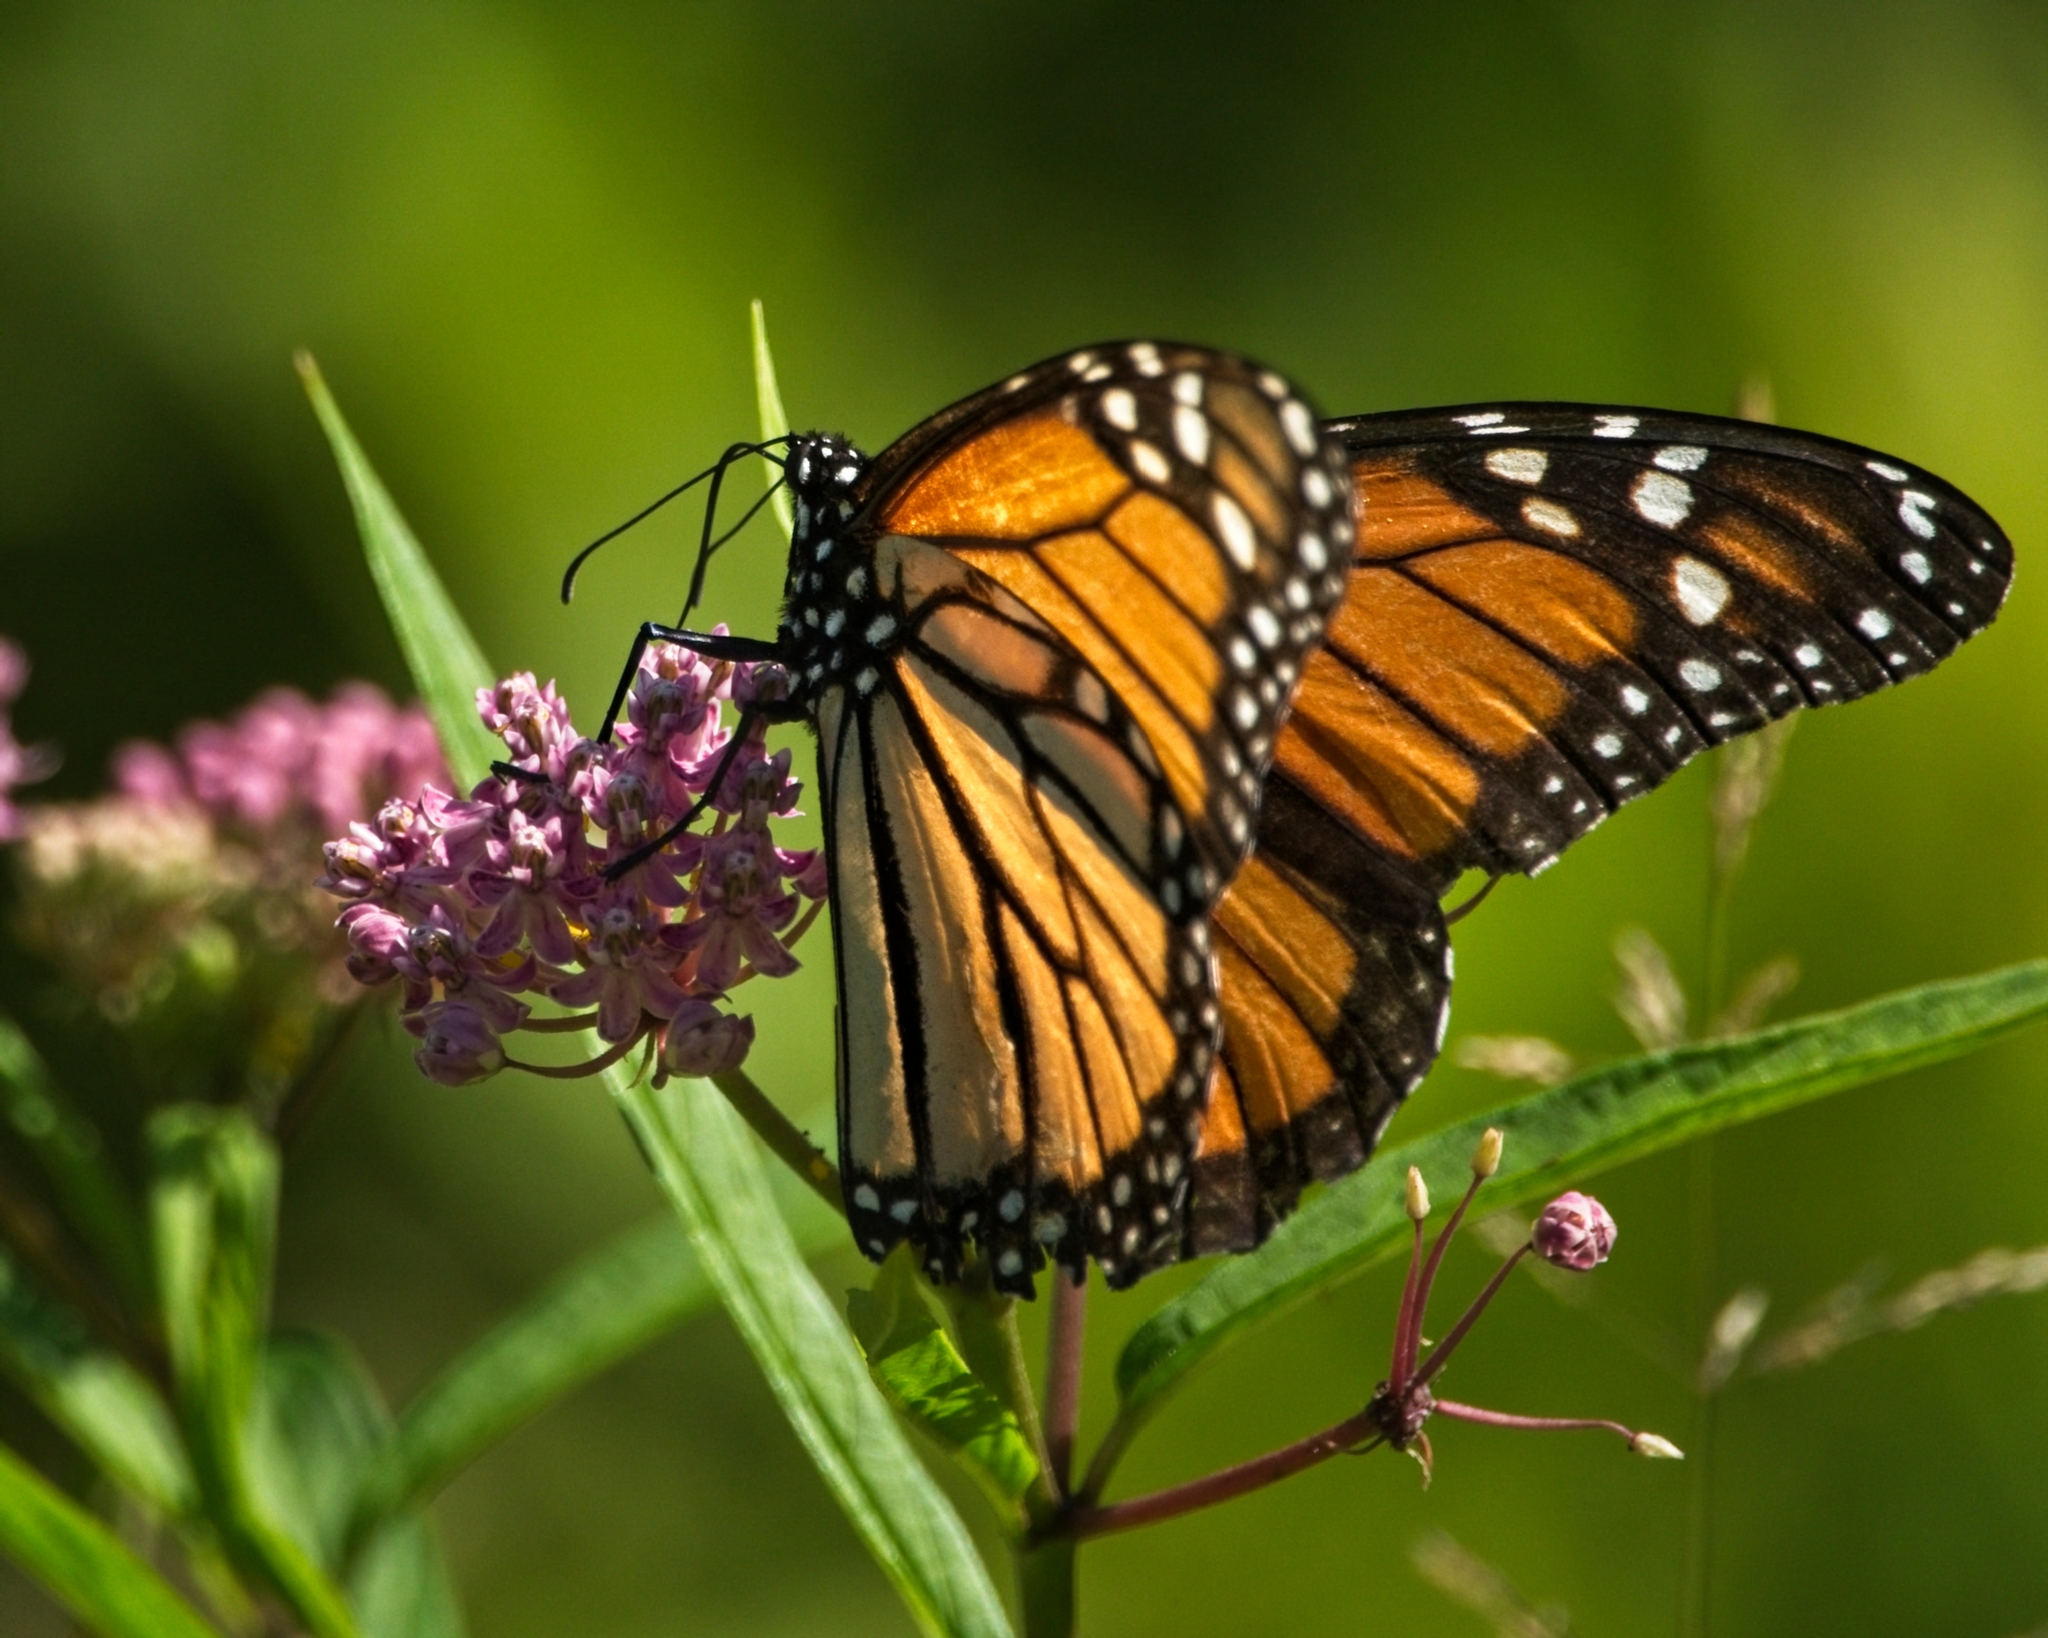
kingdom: Animalia
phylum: Arthropoda
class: Insecta
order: Lepidoptera
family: Nymphalidae
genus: Danaus
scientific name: Danaus plexippus
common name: Monarch
